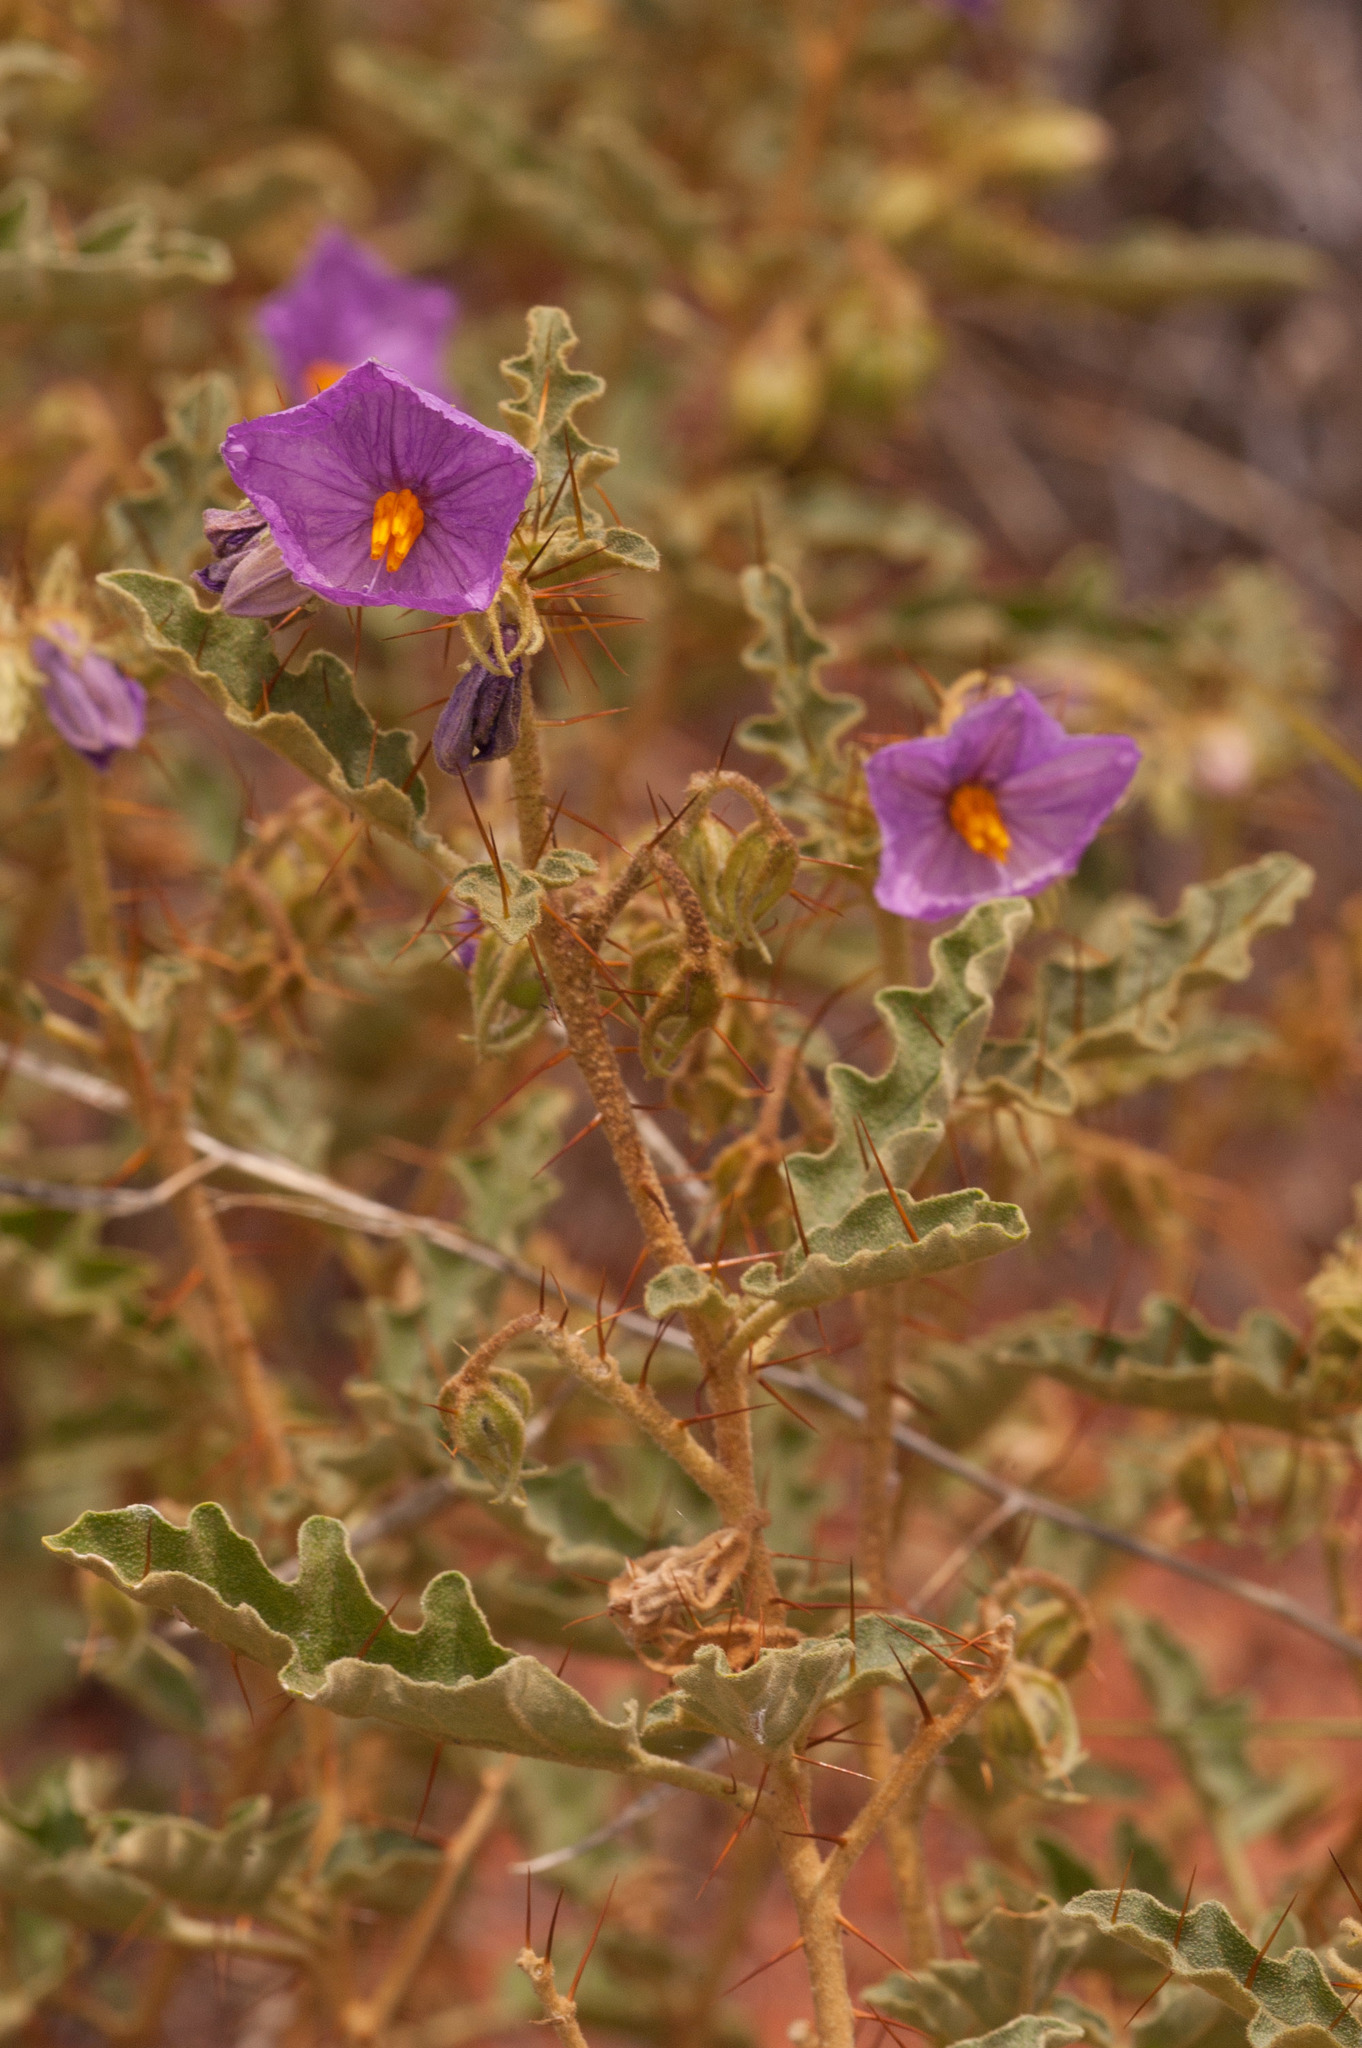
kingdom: Plantae
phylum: Tracheophyta
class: Magnoliopsida
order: Solanales
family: Solanaceae
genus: Solanum
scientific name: Solanum petrophilum
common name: Rock nightshade
